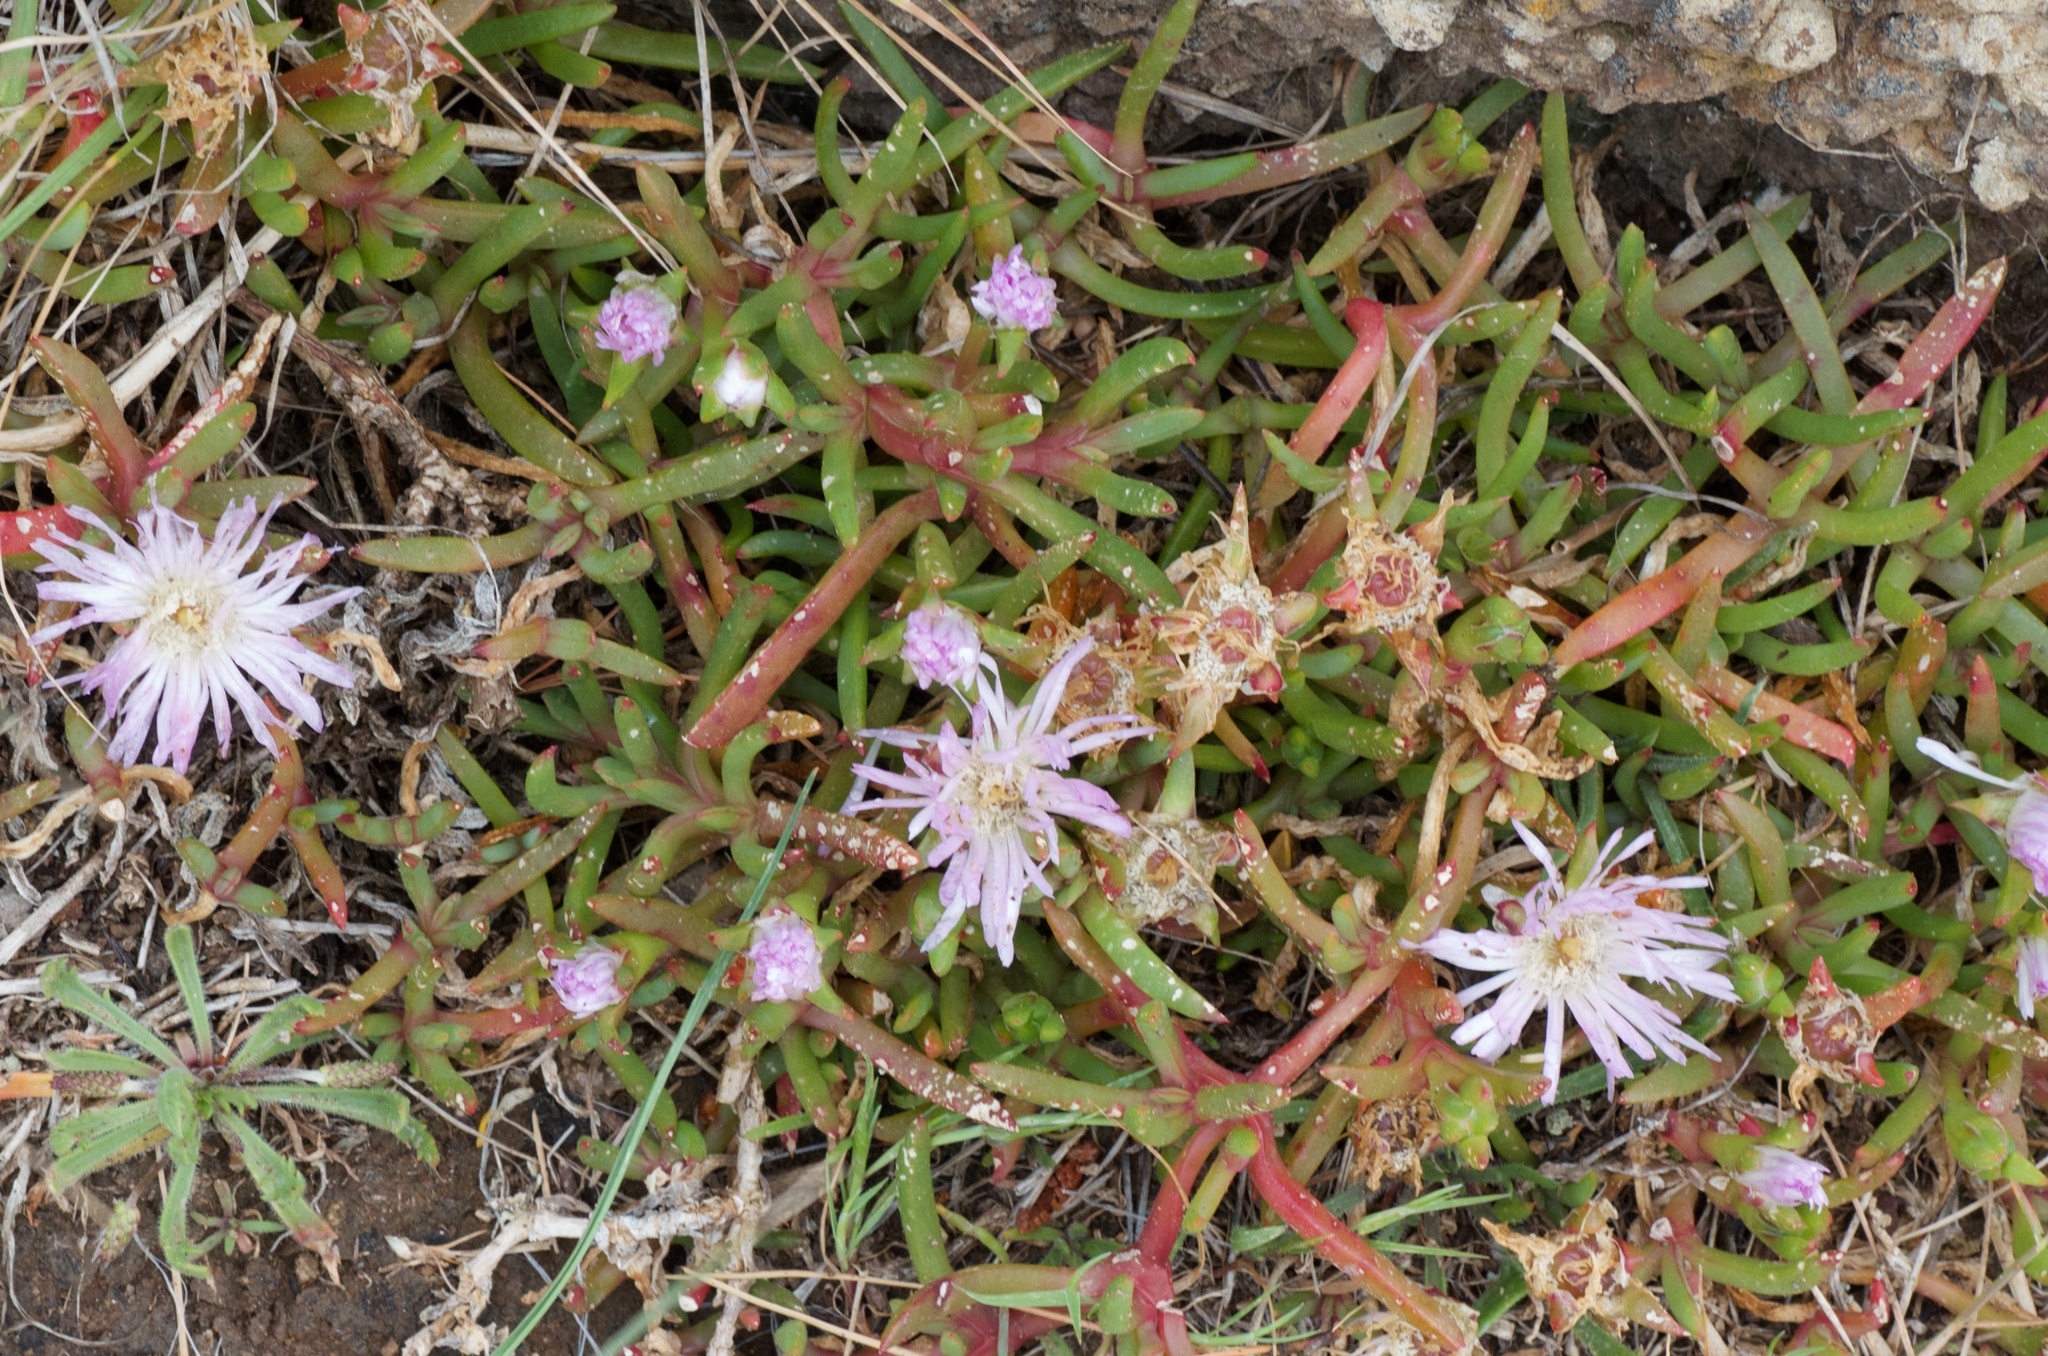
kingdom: Plantae
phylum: Tracheophyta
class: Magnoliopsida
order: Caryophyllales
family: Aizoaceae
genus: Disphyma
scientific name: Disphyma australe
